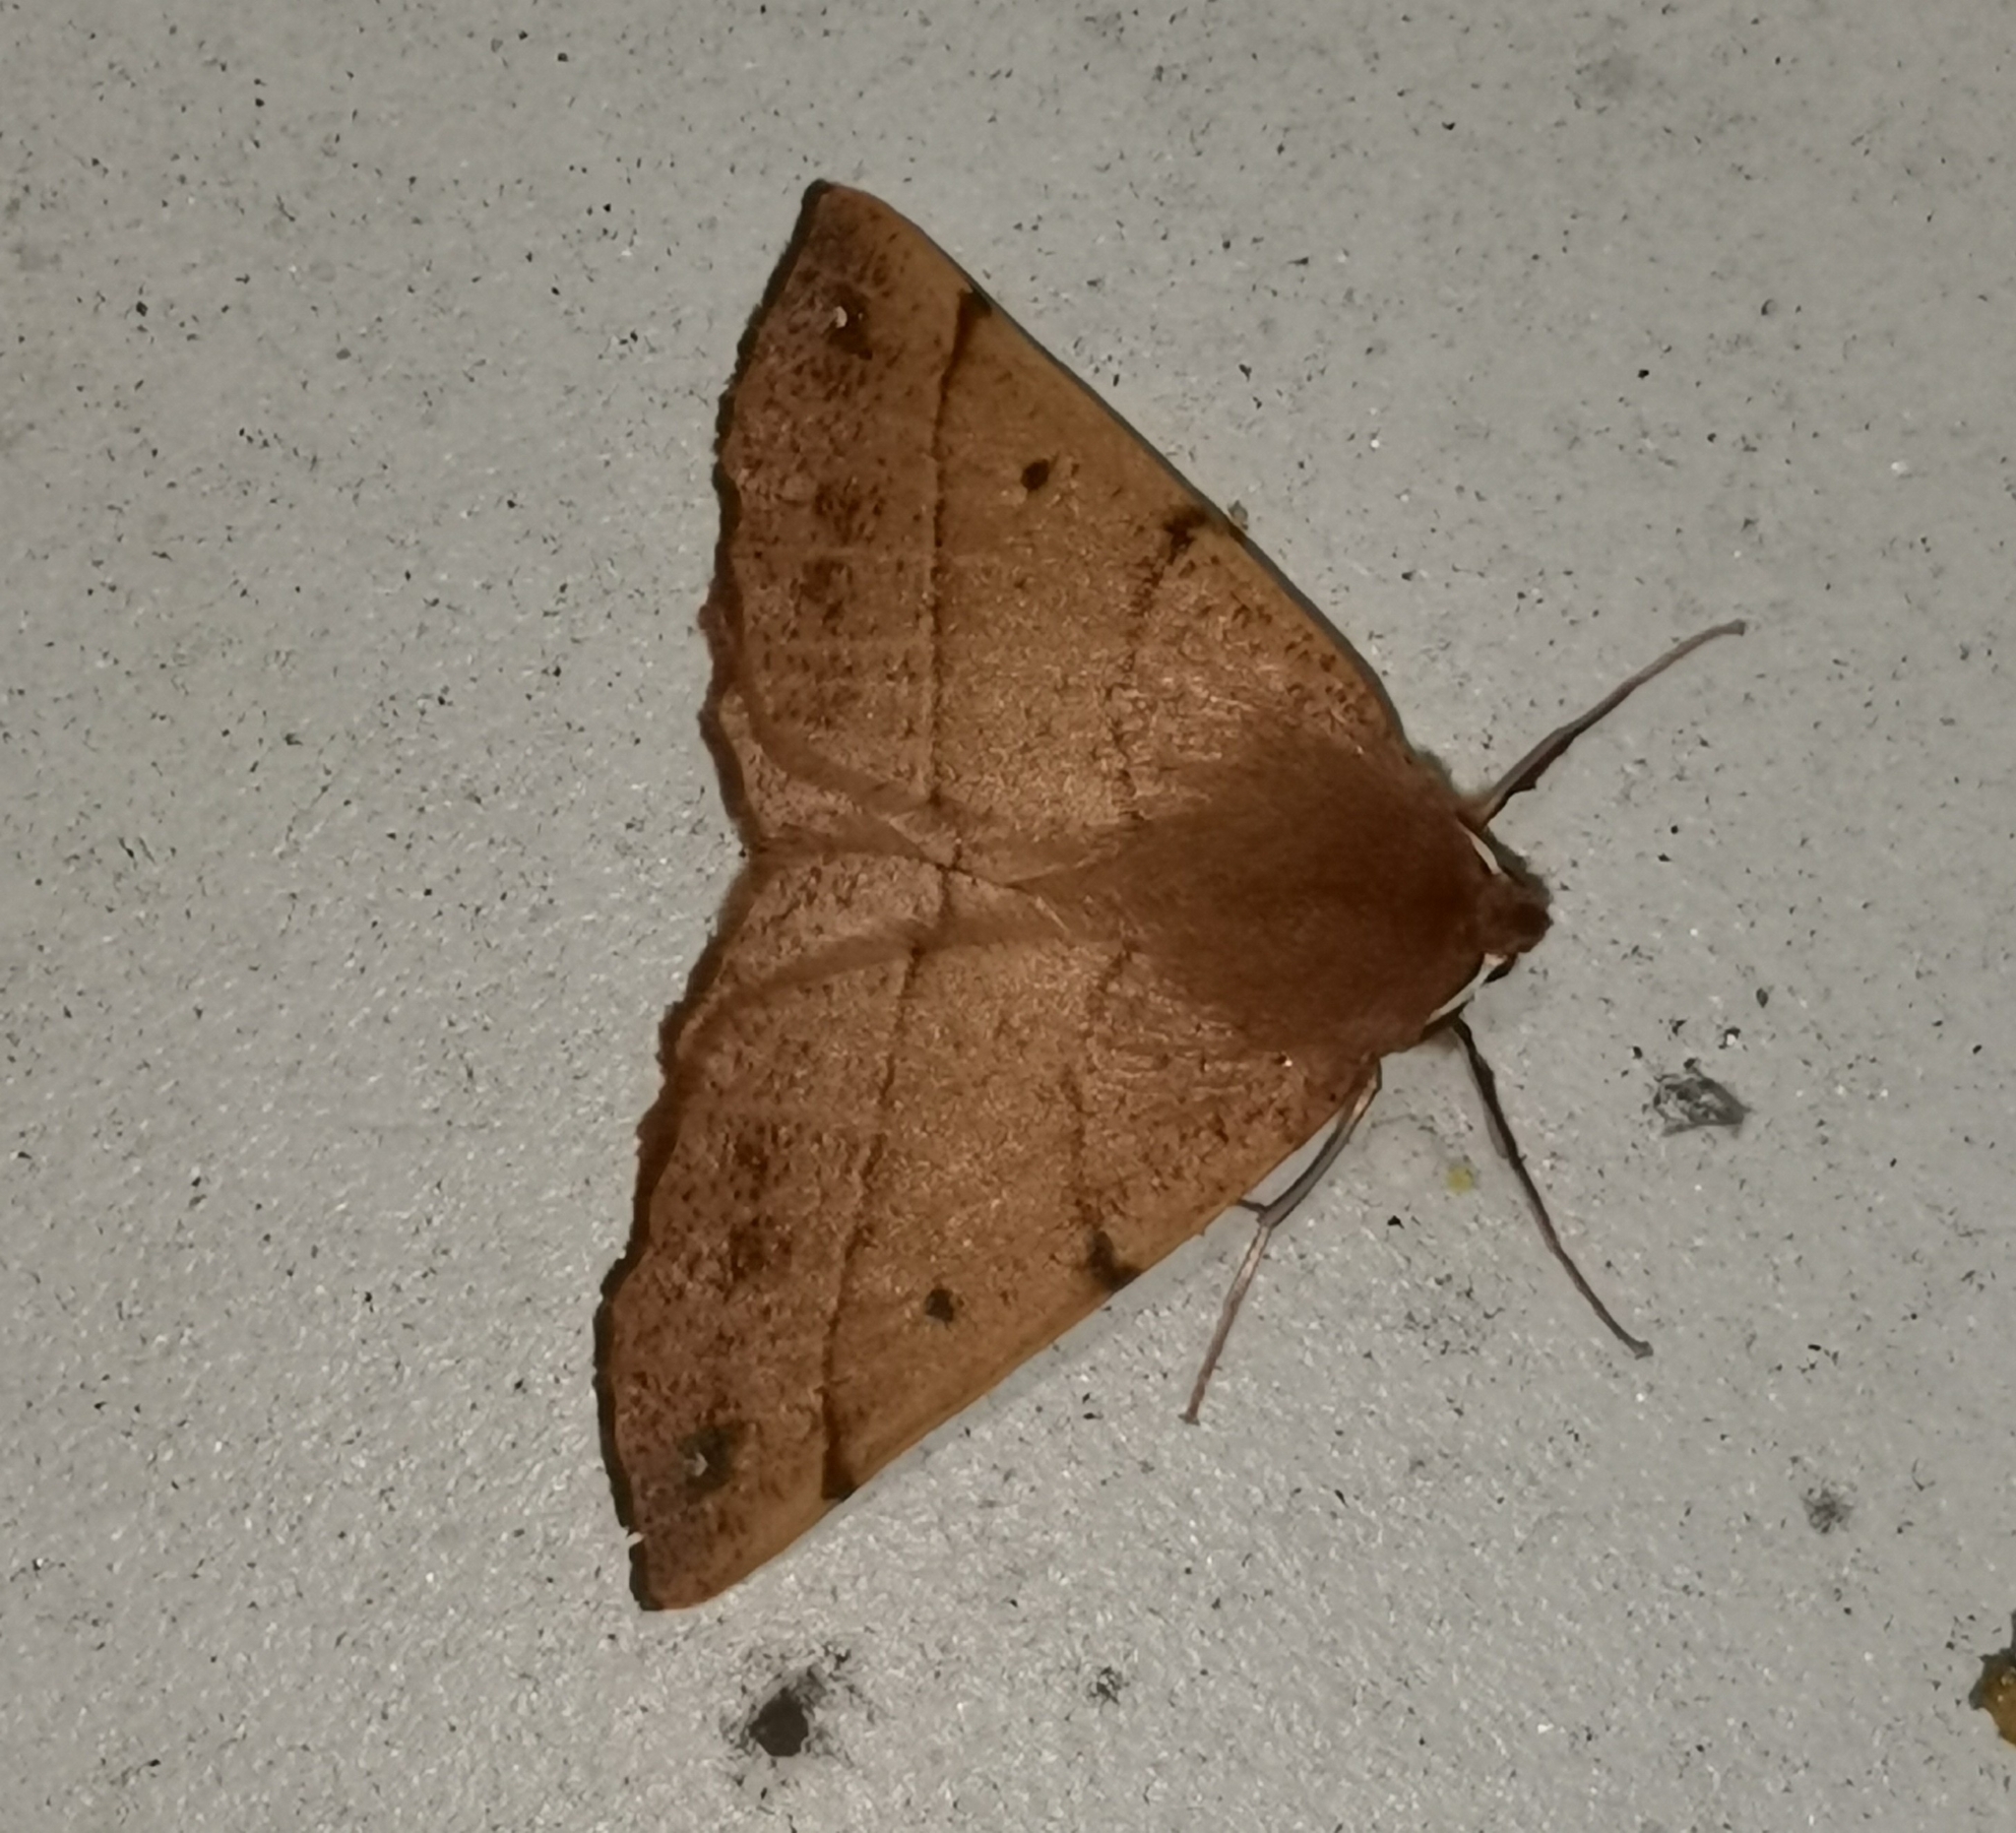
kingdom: Animalia
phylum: Arthropoda
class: Insecta
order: Lepidoptera
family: Geometridae
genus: Colotois
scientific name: Colotois pennaria
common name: Feathered thorn
